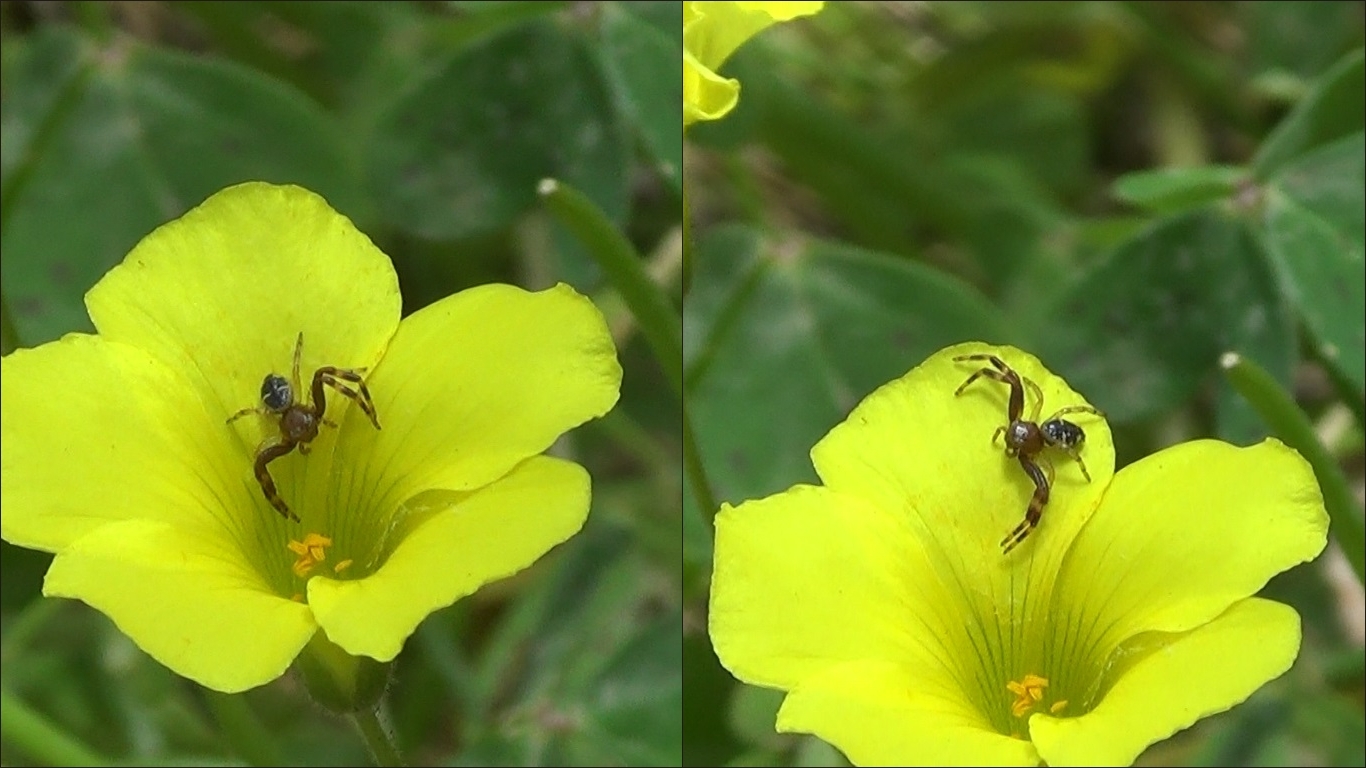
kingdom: Animalia
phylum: Arthropoda
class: Arachnida
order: Araneae
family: Thomisidae
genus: Synema
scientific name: Synema globosum
